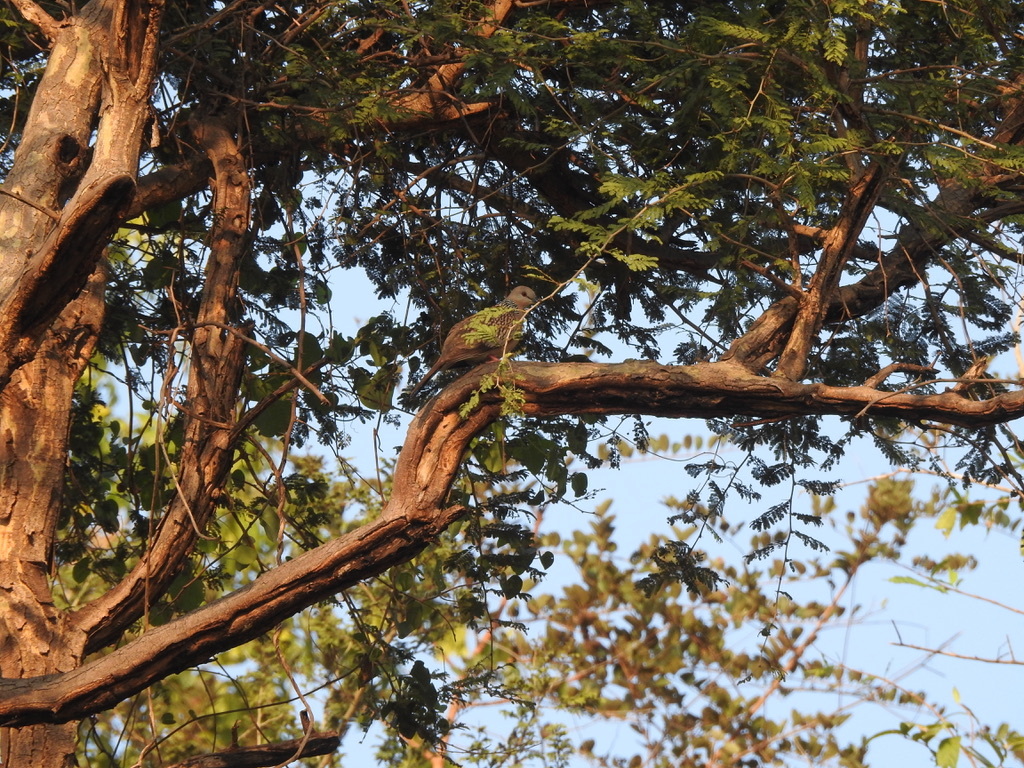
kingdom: Animalia
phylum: Chordata
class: Aves
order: Columbiformes
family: Columbidae
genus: Spilopelia
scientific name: Spilopelia chinensis
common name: Spotted dove
